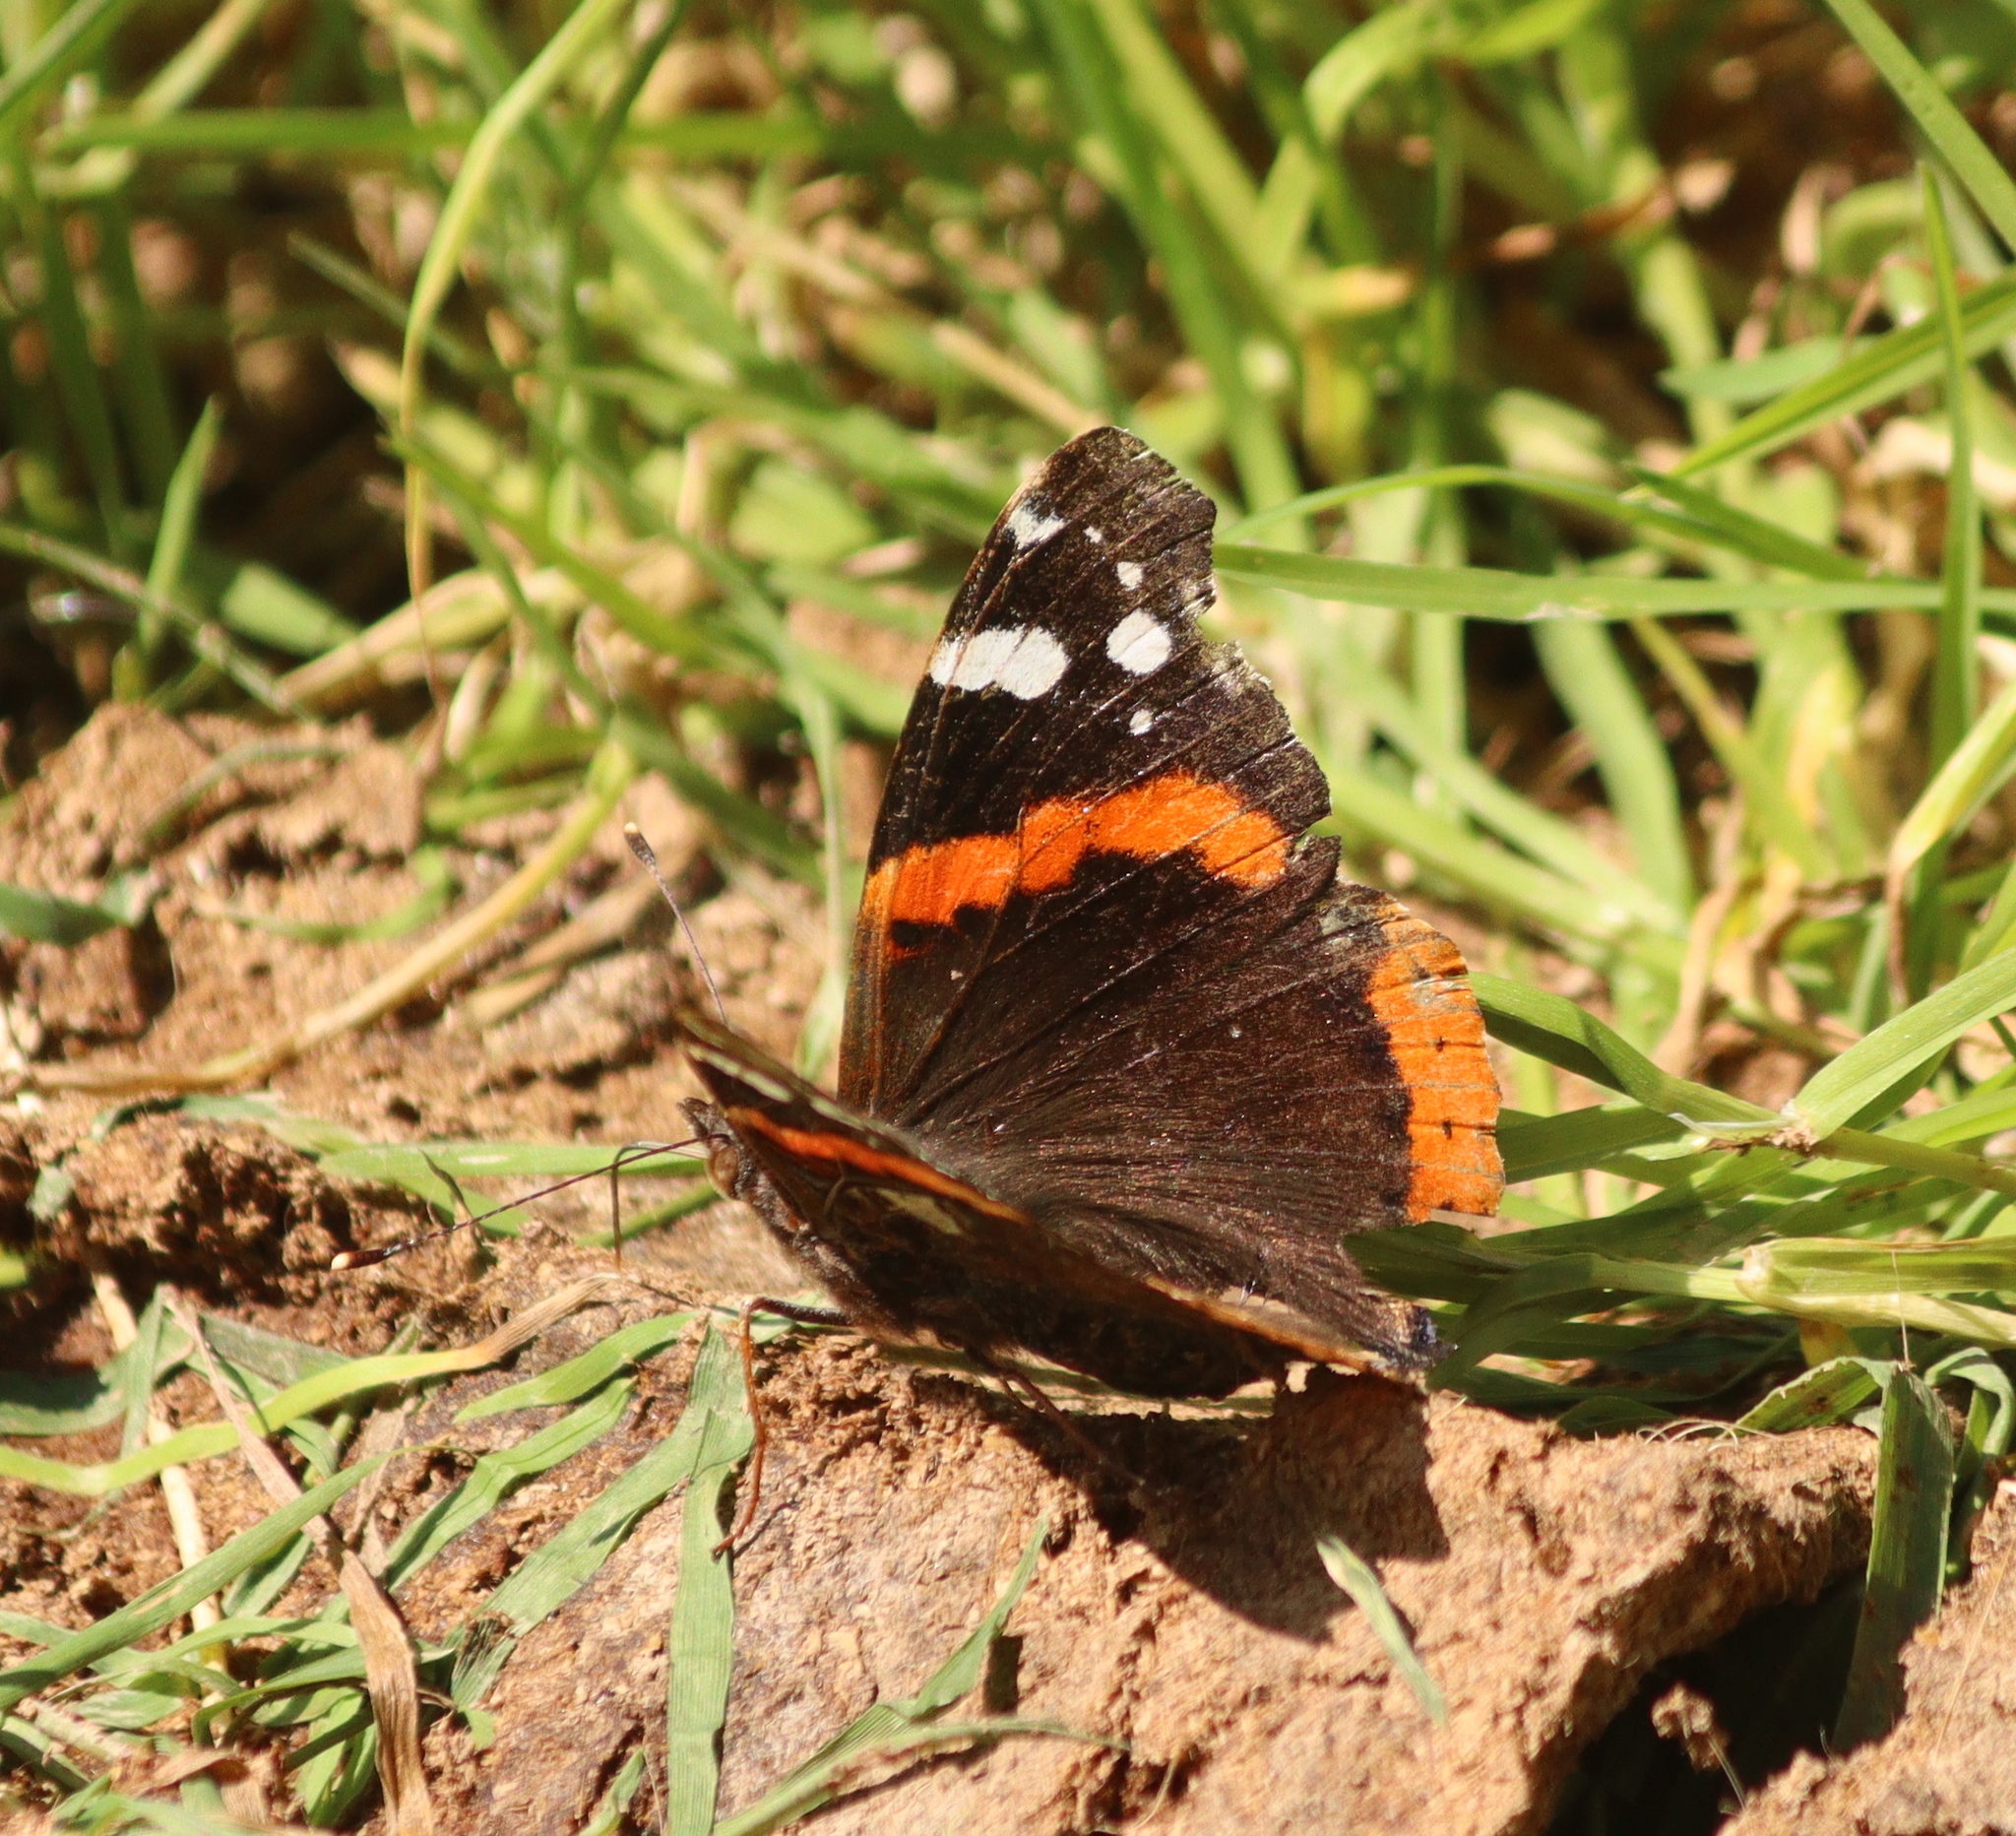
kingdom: Animalia
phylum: Arthropoda
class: Insecta
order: Lepidoptera
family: Nymphalidae
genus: Vanessa
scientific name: Vanessa atalanta
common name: Red admiral
